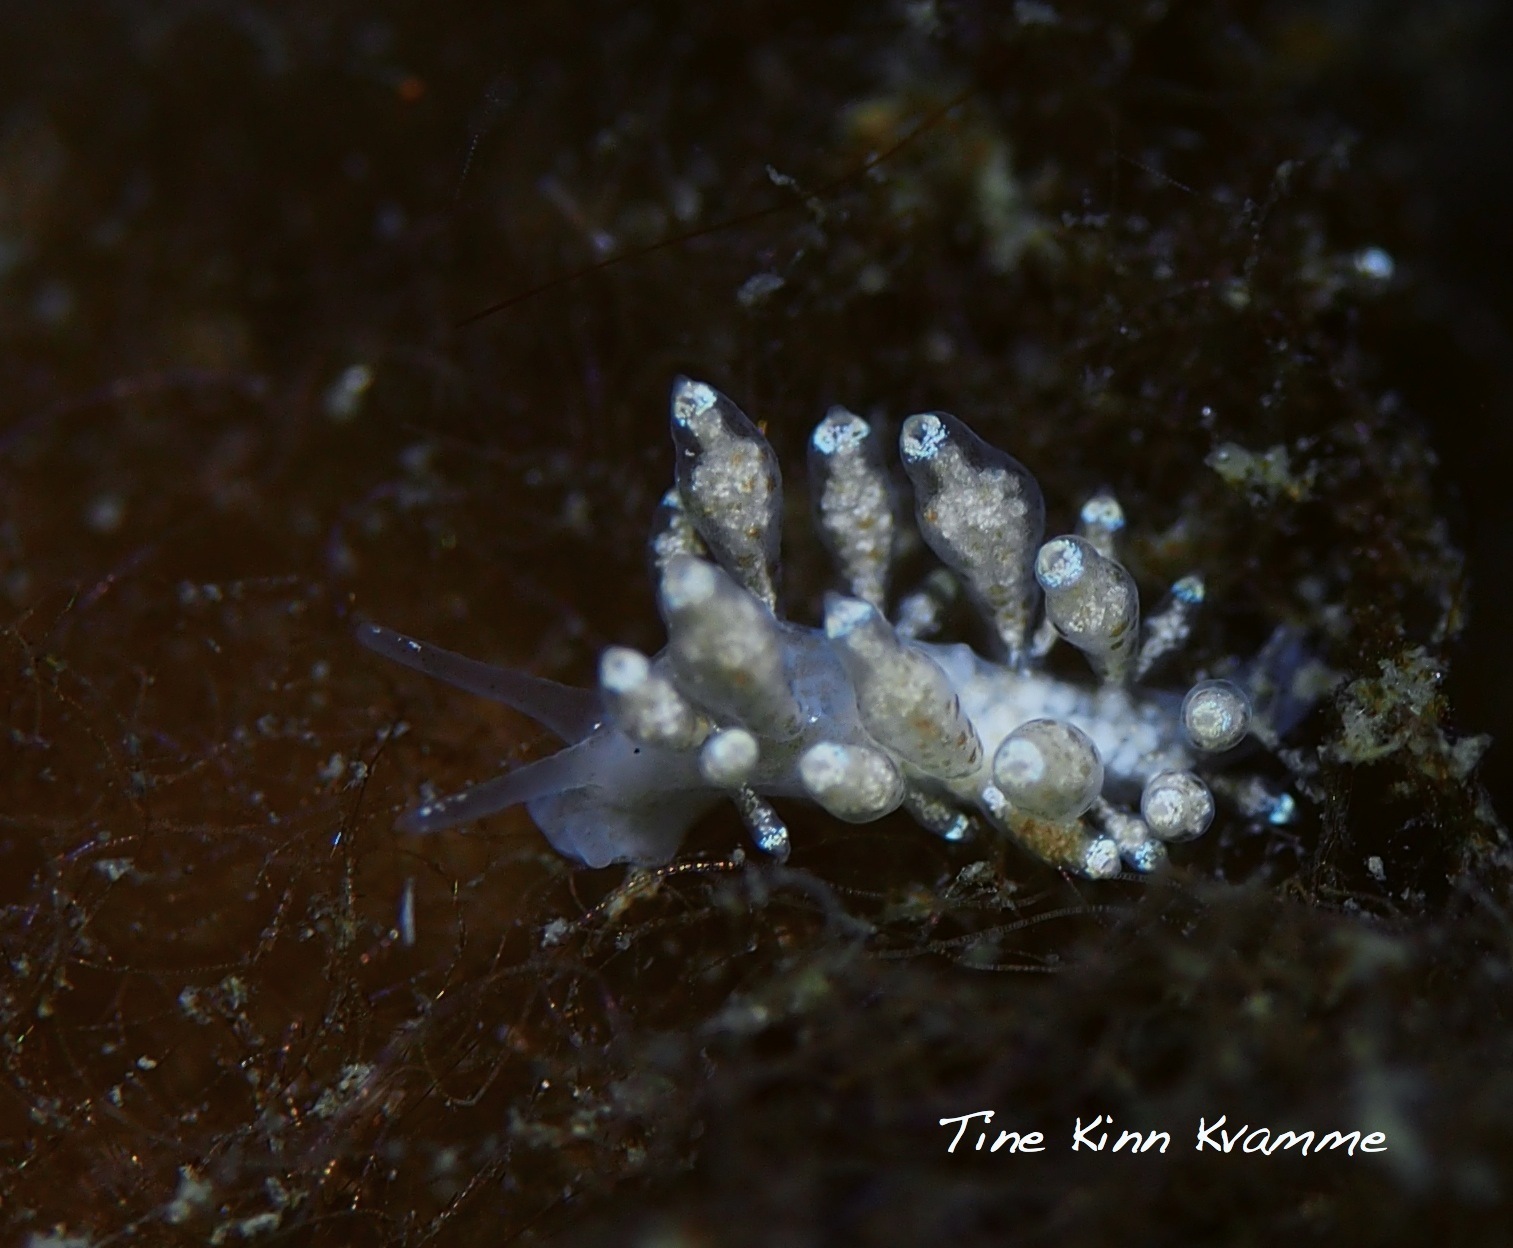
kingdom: Animalia
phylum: Mollusca
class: Gastropoda
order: Nudibranchia
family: Eubranchidae
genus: Eubranchus
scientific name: Eubranchus exiguus
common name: Balloon aeolis
